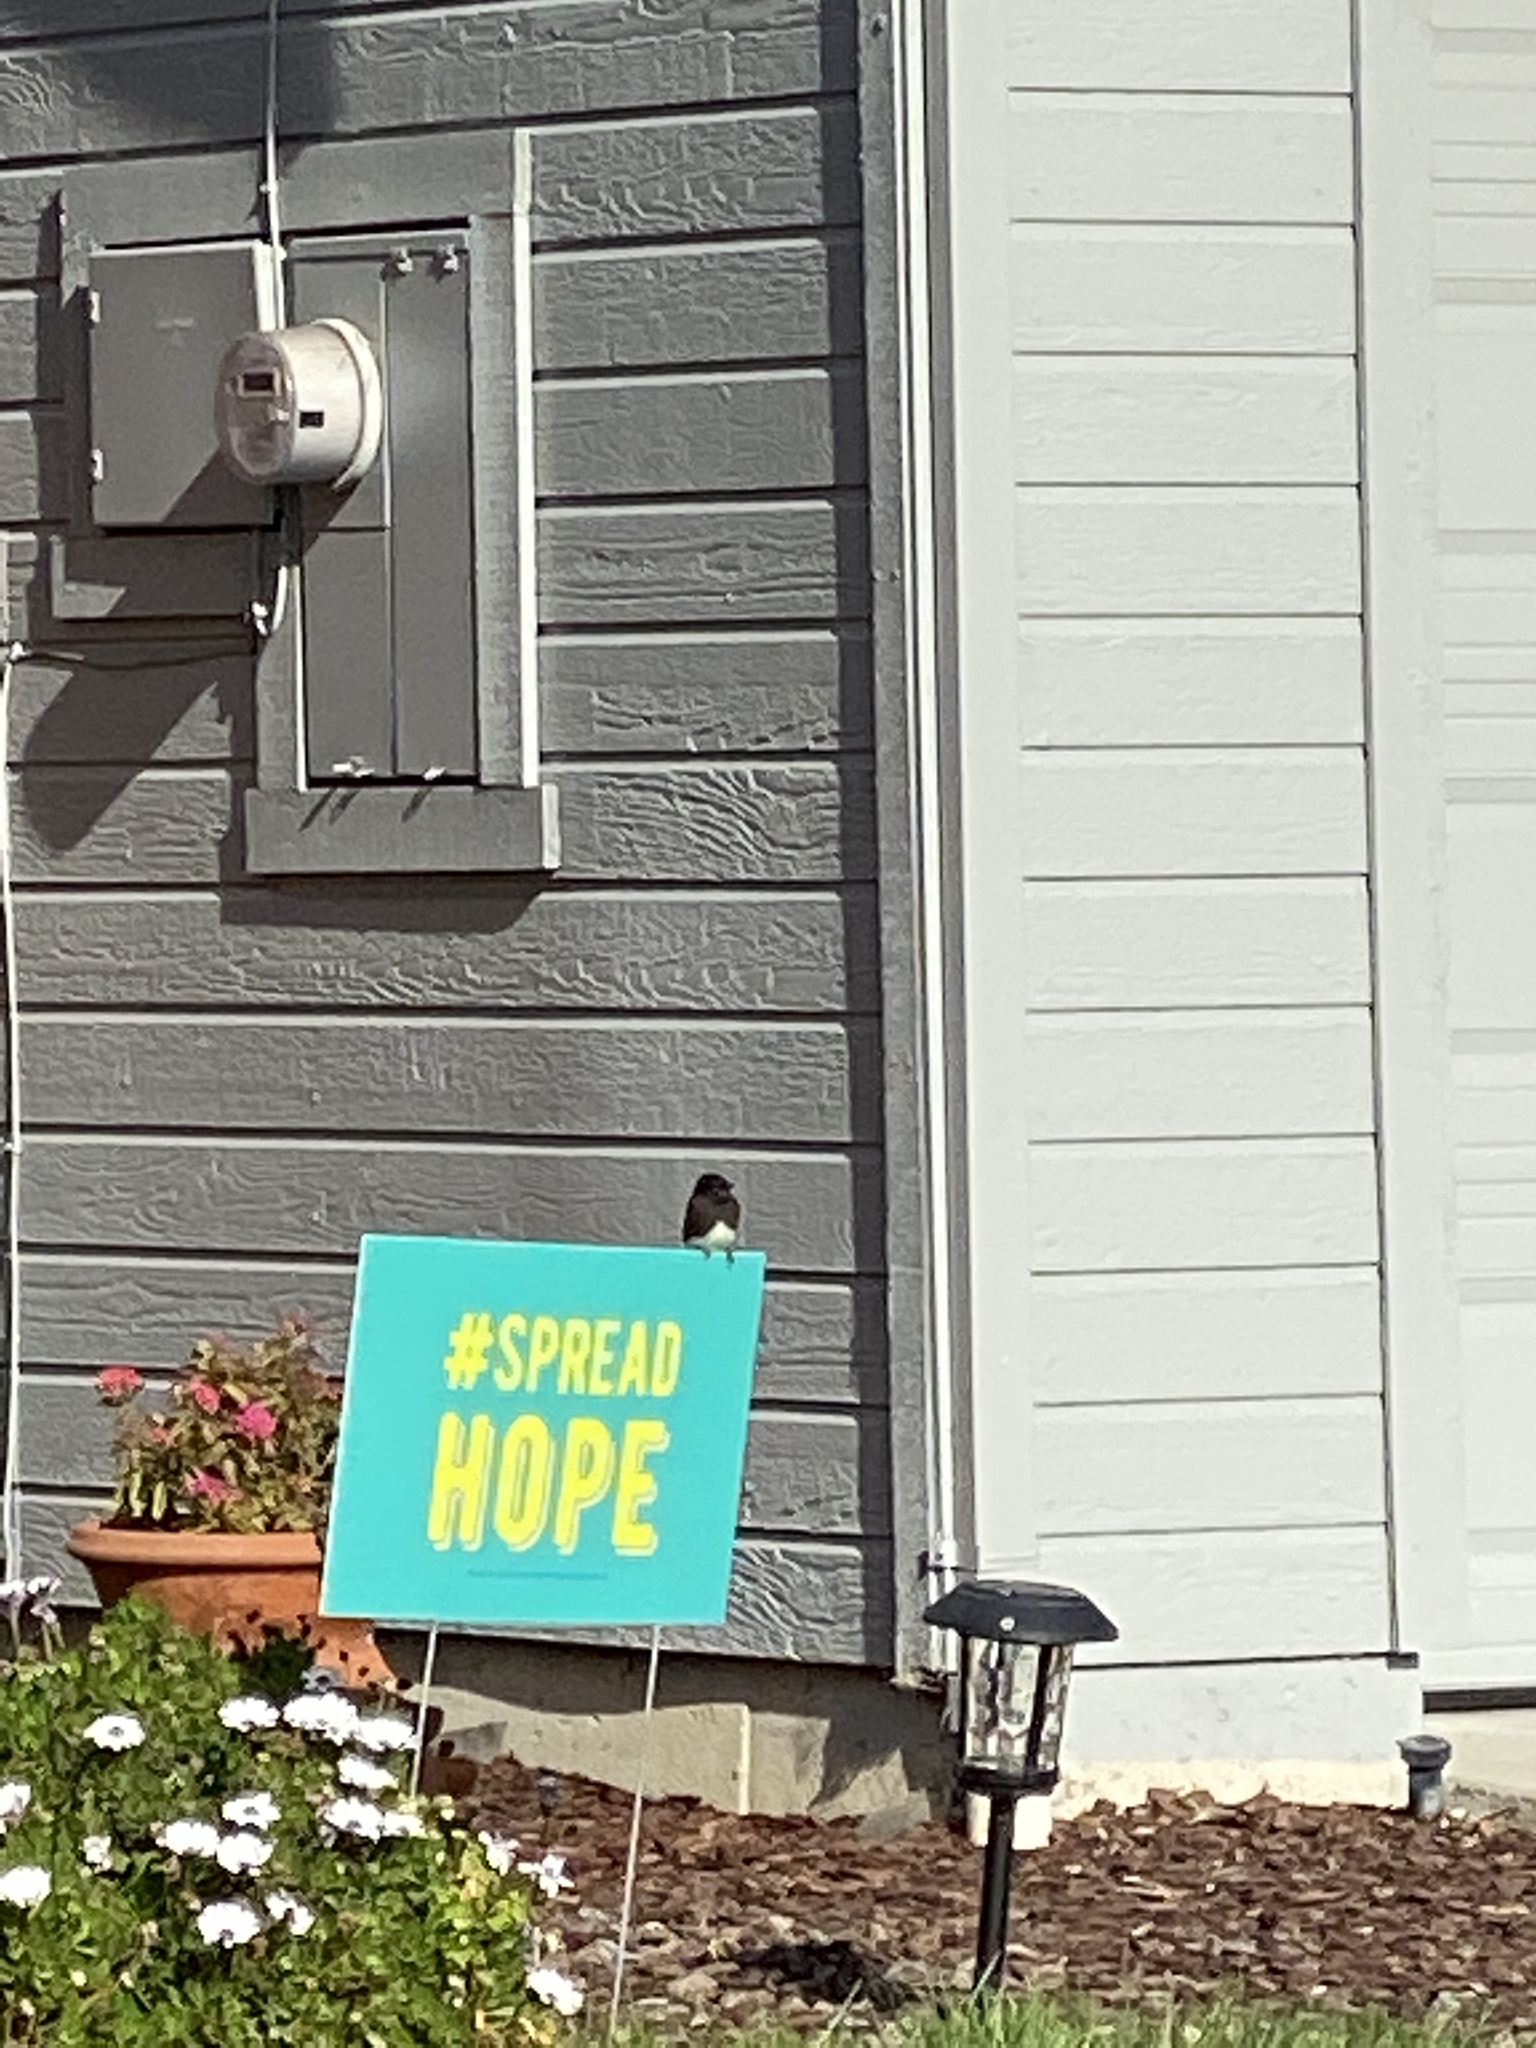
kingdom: Animalia
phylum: Chordata
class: Aves
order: Passeriformes
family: Tyrannidae
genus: Sayornis
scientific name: Sayornis nigricans
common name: Black phoebe
